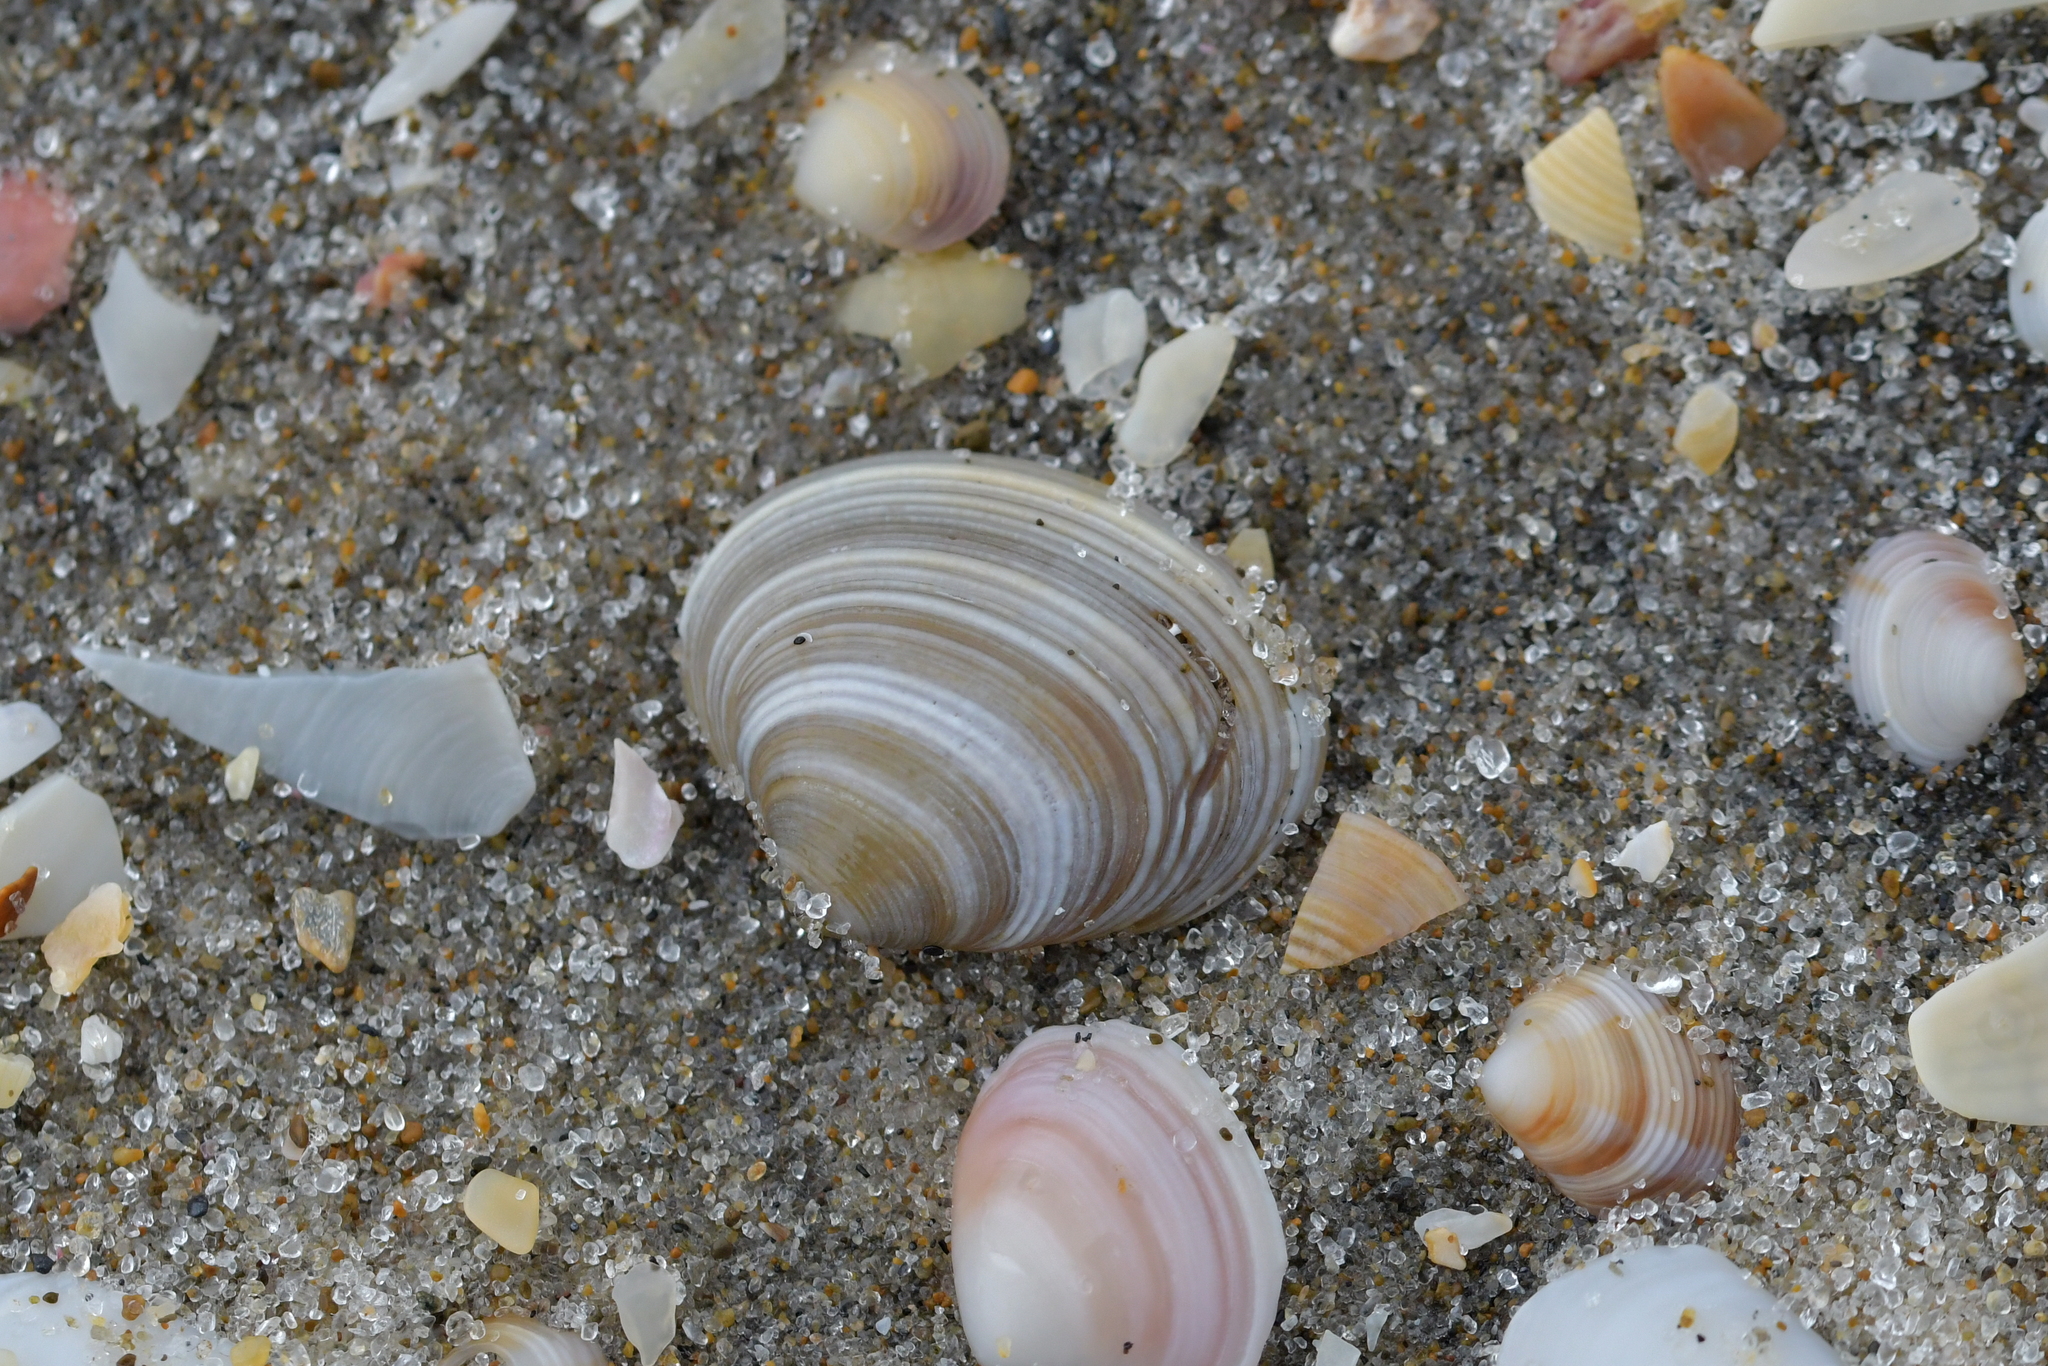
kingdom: Animalia
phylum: Mollusca
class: Bivalvia
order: Venerida
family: Veneridae
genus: Tawera
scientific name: Tawera spissa
